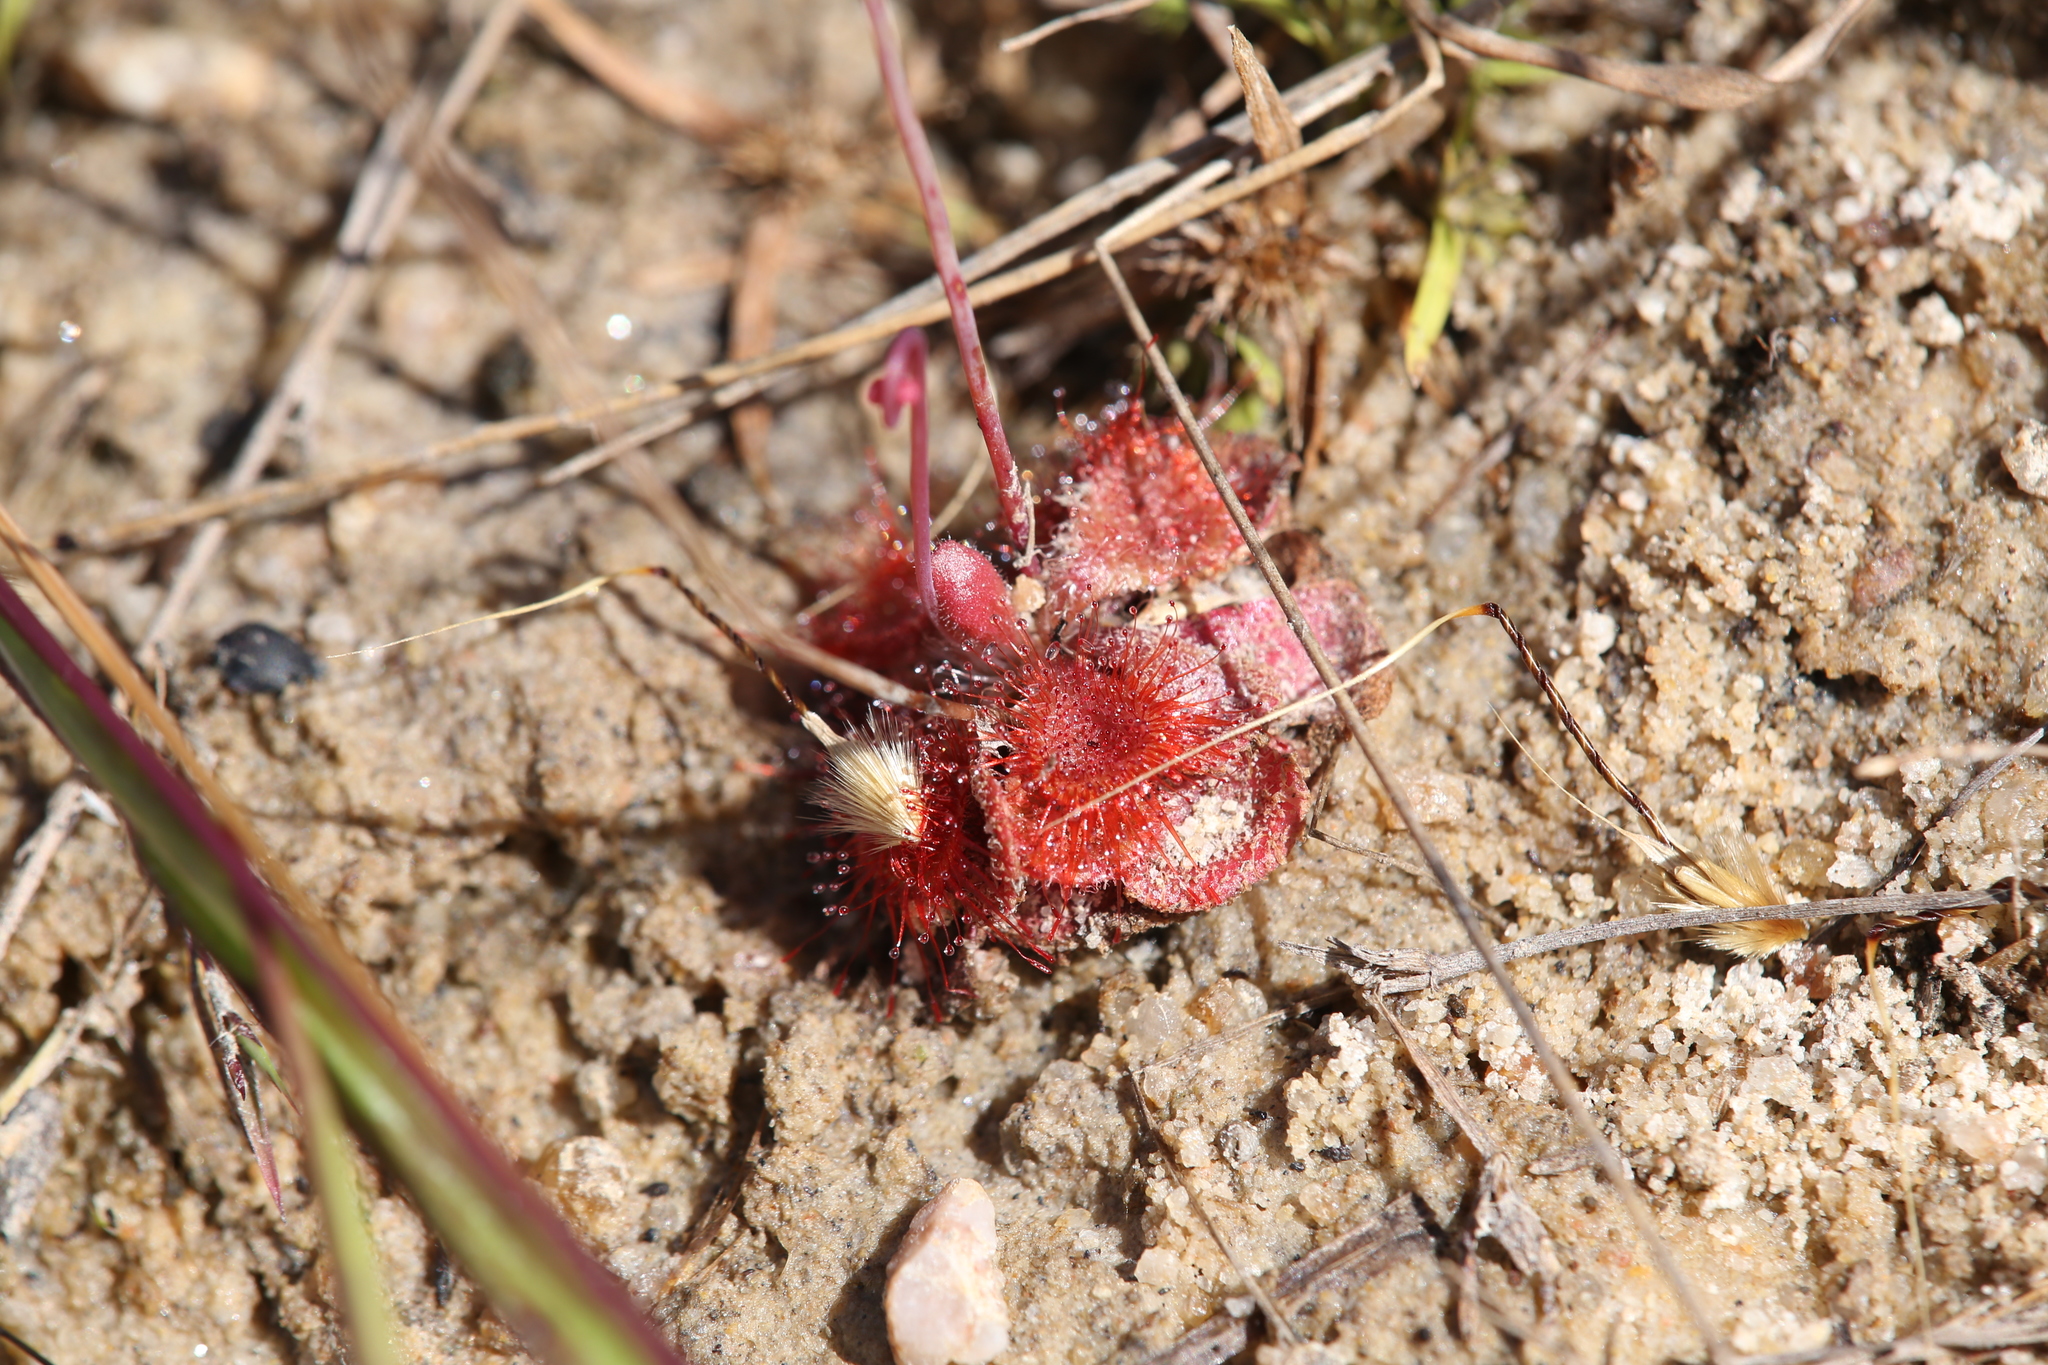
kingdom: Plantae
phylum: Tracheophyta
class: Magnoliopsida
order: Caryophyllales
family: Droseraceae
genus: Drosera
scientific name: Drosera spatulata
